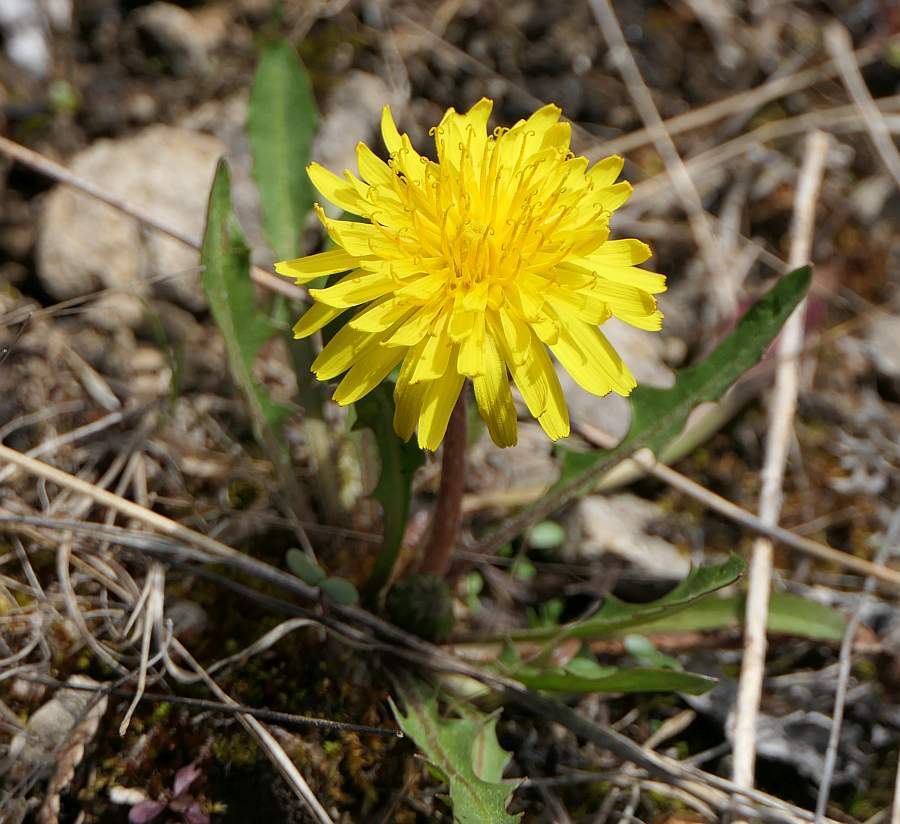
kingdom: Plantae
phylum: Tracheophyta
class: Magnoliopsida
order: Asterales
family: Asteraceae
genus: Taraxacum
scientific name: Taraxacum palustre
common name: Marsh dandelion
